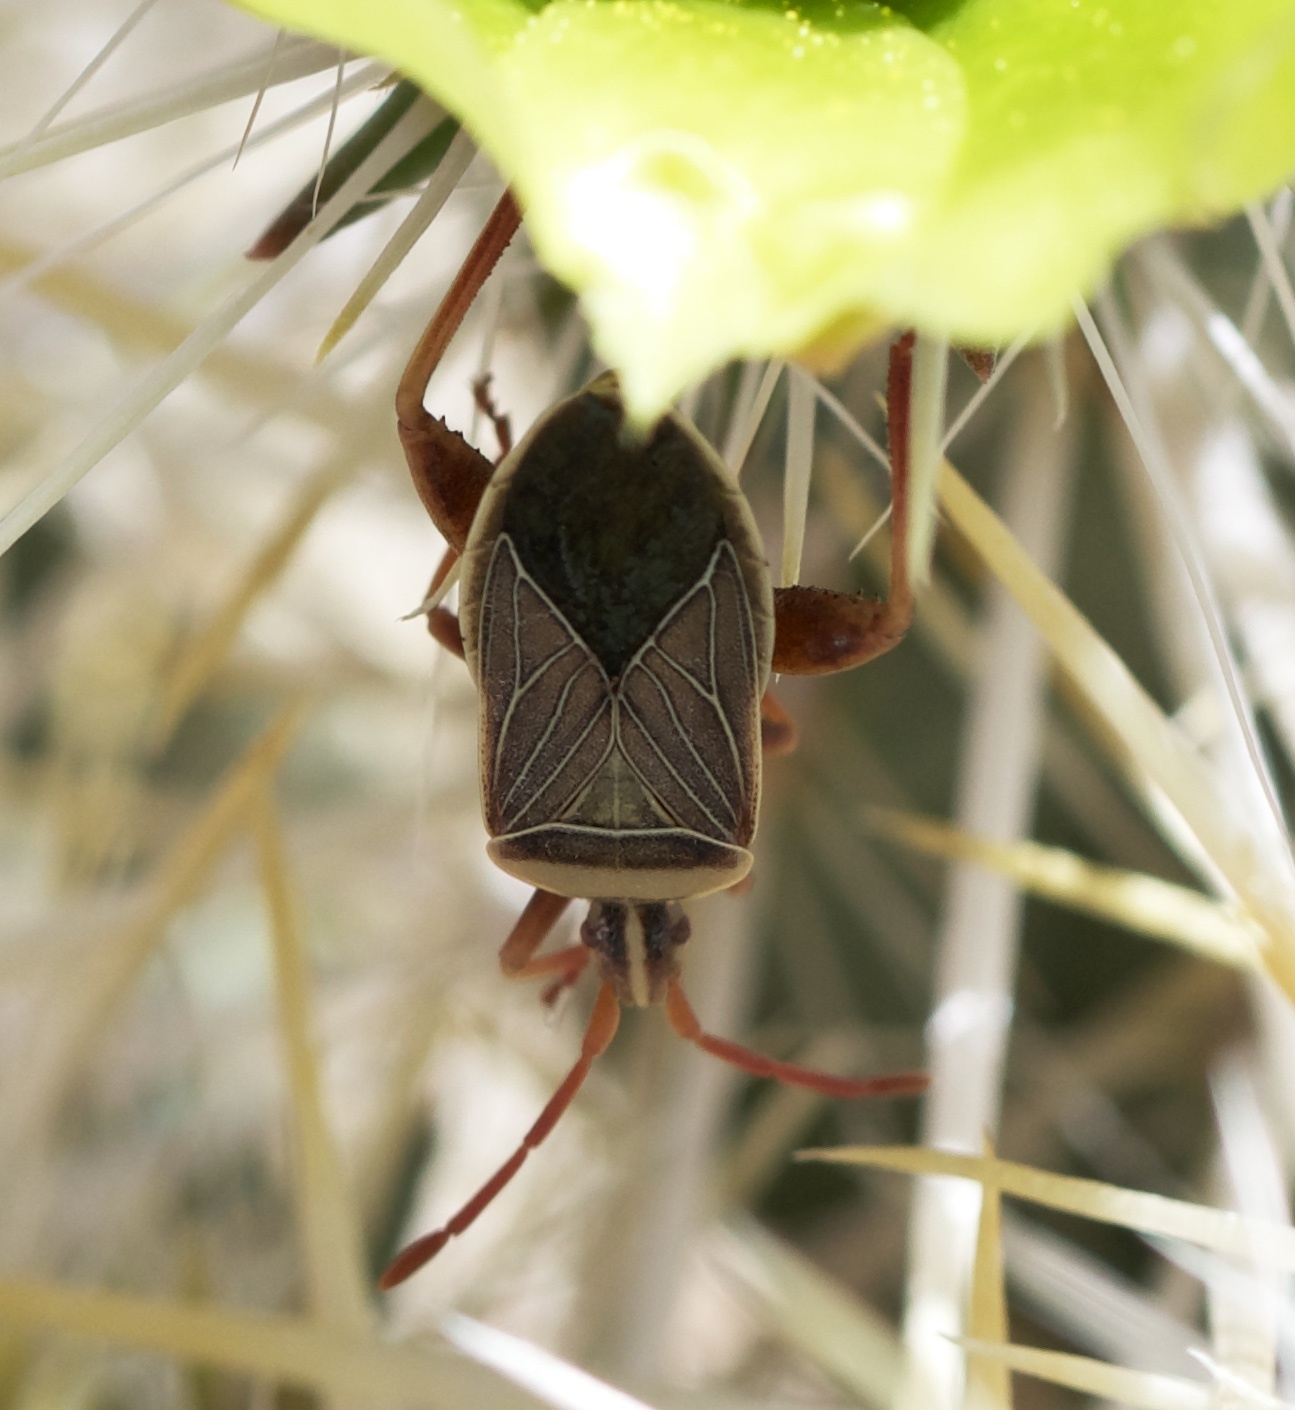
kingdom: Animalia
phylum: Arthropoda
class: Insecta
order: Hemiptera
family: Coreidae
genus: Chelinidea
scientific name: Chelinidea vittiger
